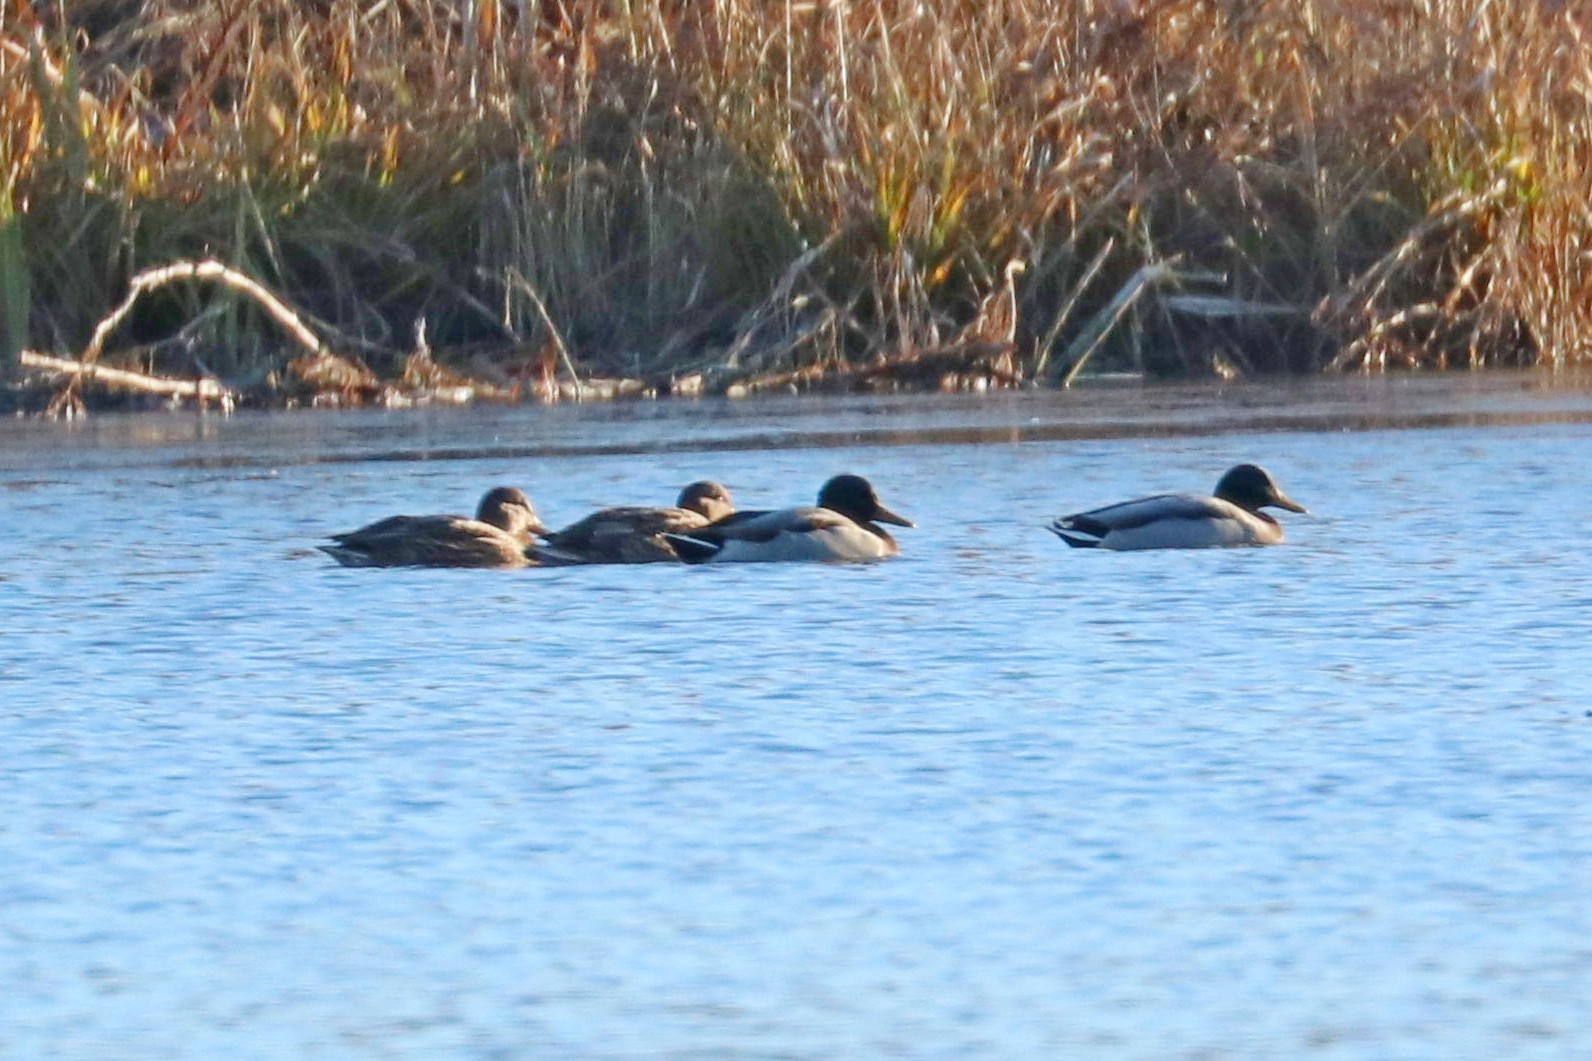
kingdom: Animalia
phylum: Chordata
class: Aves
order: Anseriformes
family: Anatidae
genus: Anas
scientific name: Anas platyrhynchos
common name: Mallard
